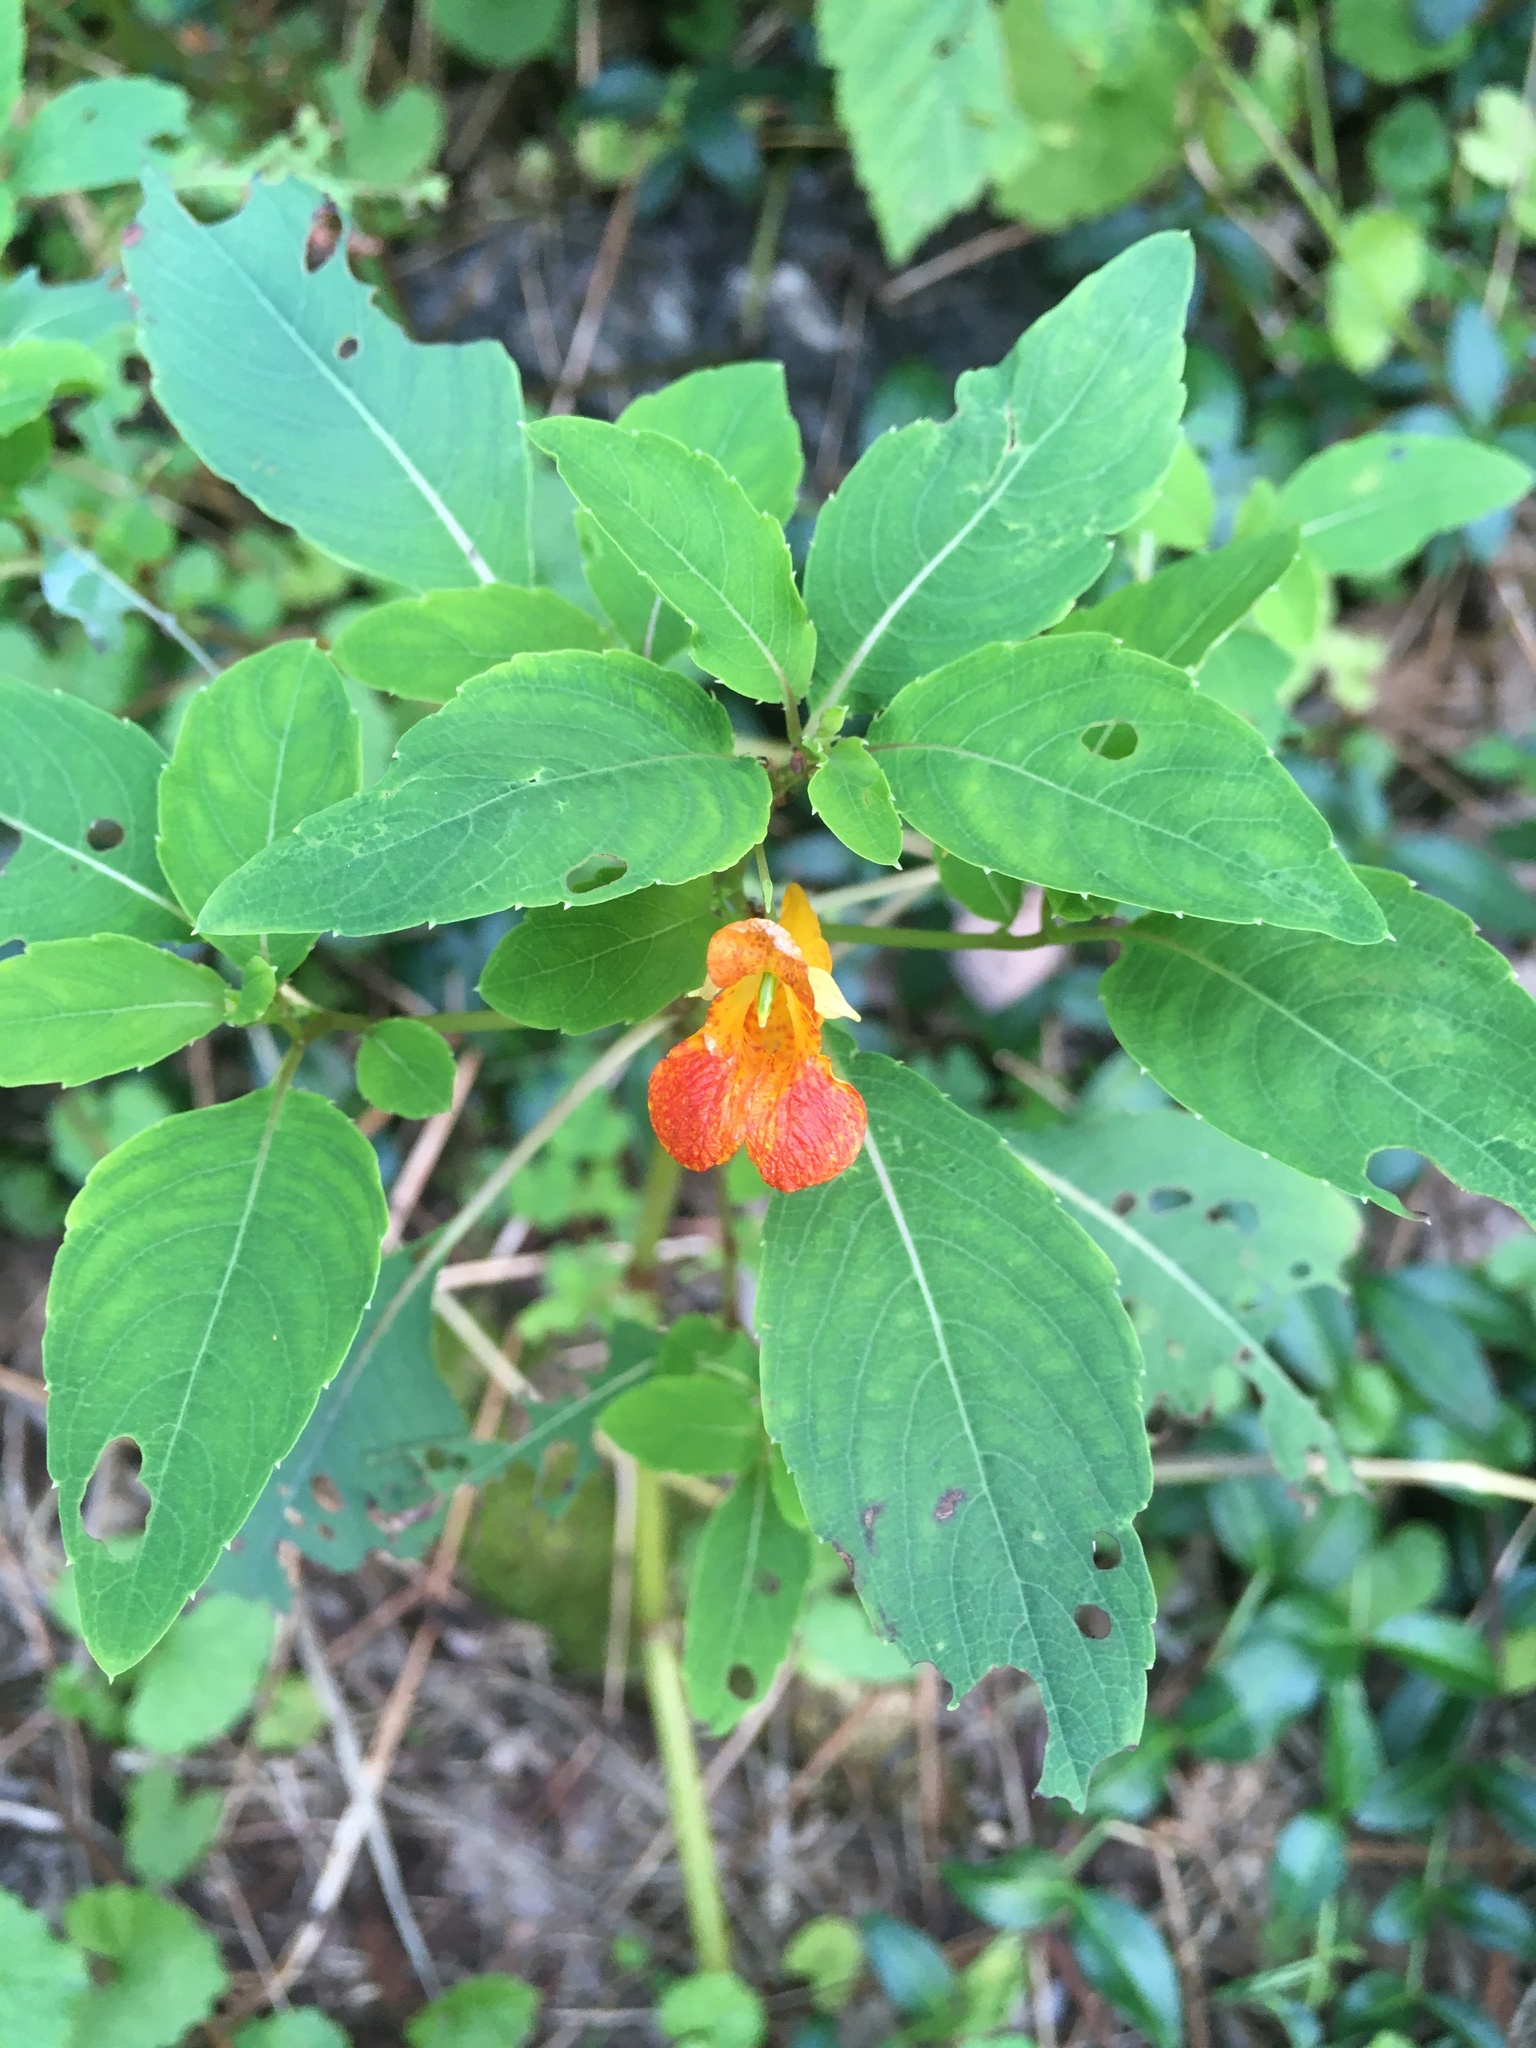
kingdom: Plantae
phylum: Tracheophyta
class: Magnoliopsida
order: Ericales
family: Balsaminaceae
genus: Impatiens
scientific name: Impatiens capensis
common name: Orange balsam
